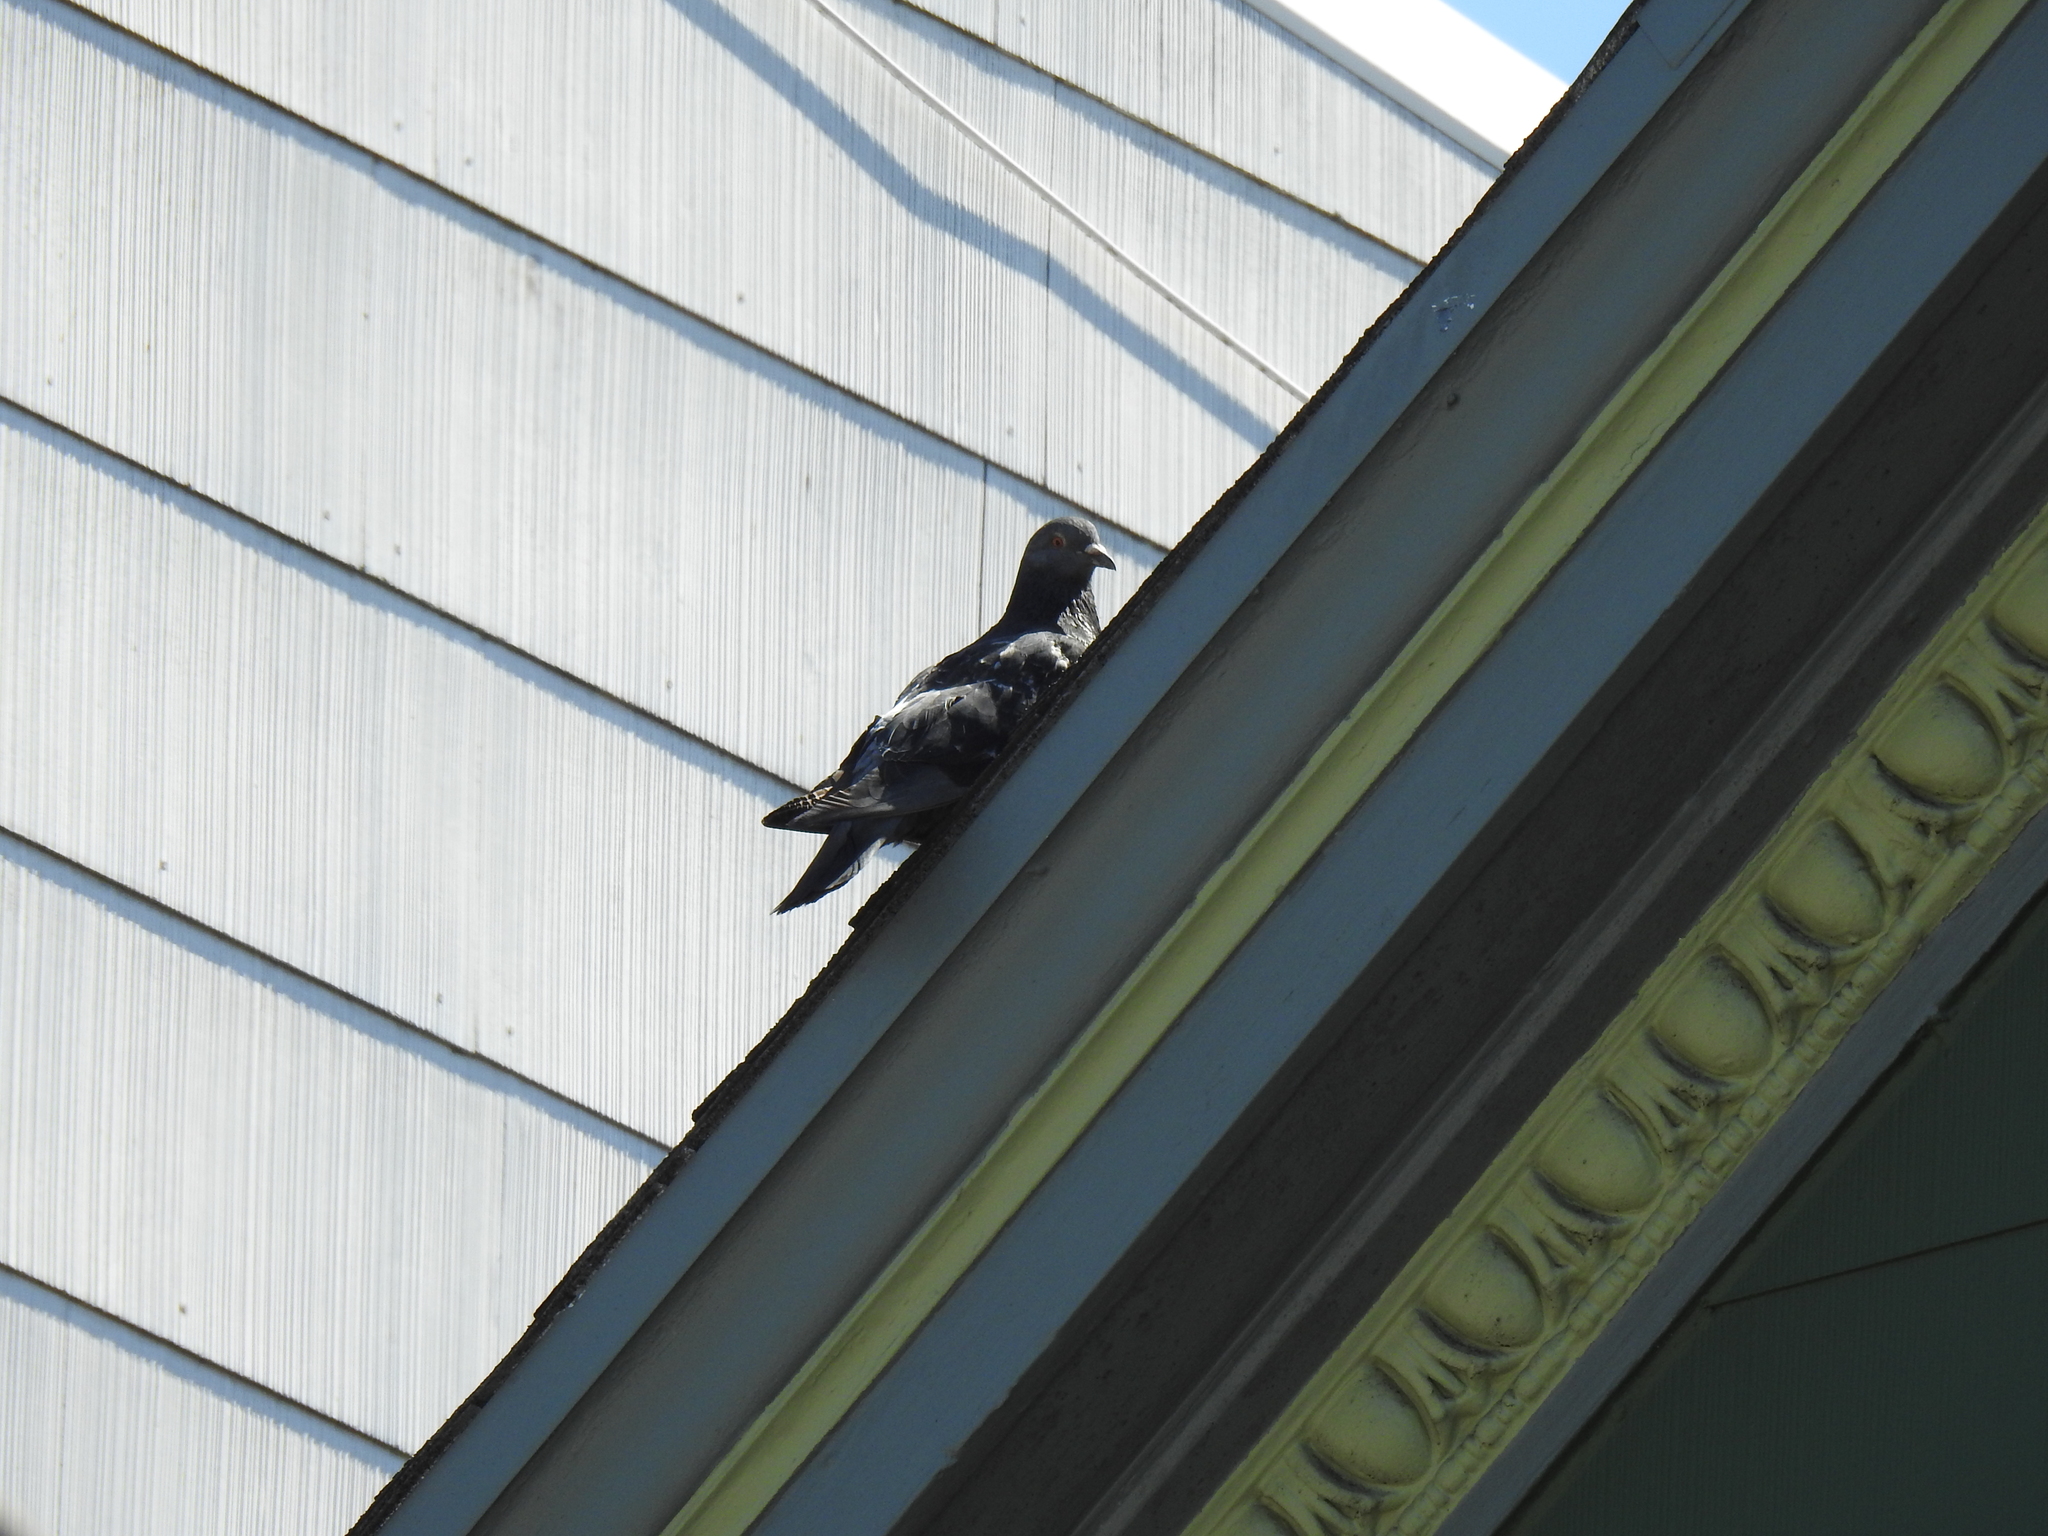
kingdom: Animalia
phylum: Chordata
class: Aves
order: Columbiformes
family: Columbidae
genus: Columba
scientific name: Columba livia
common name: Rock pigeon
